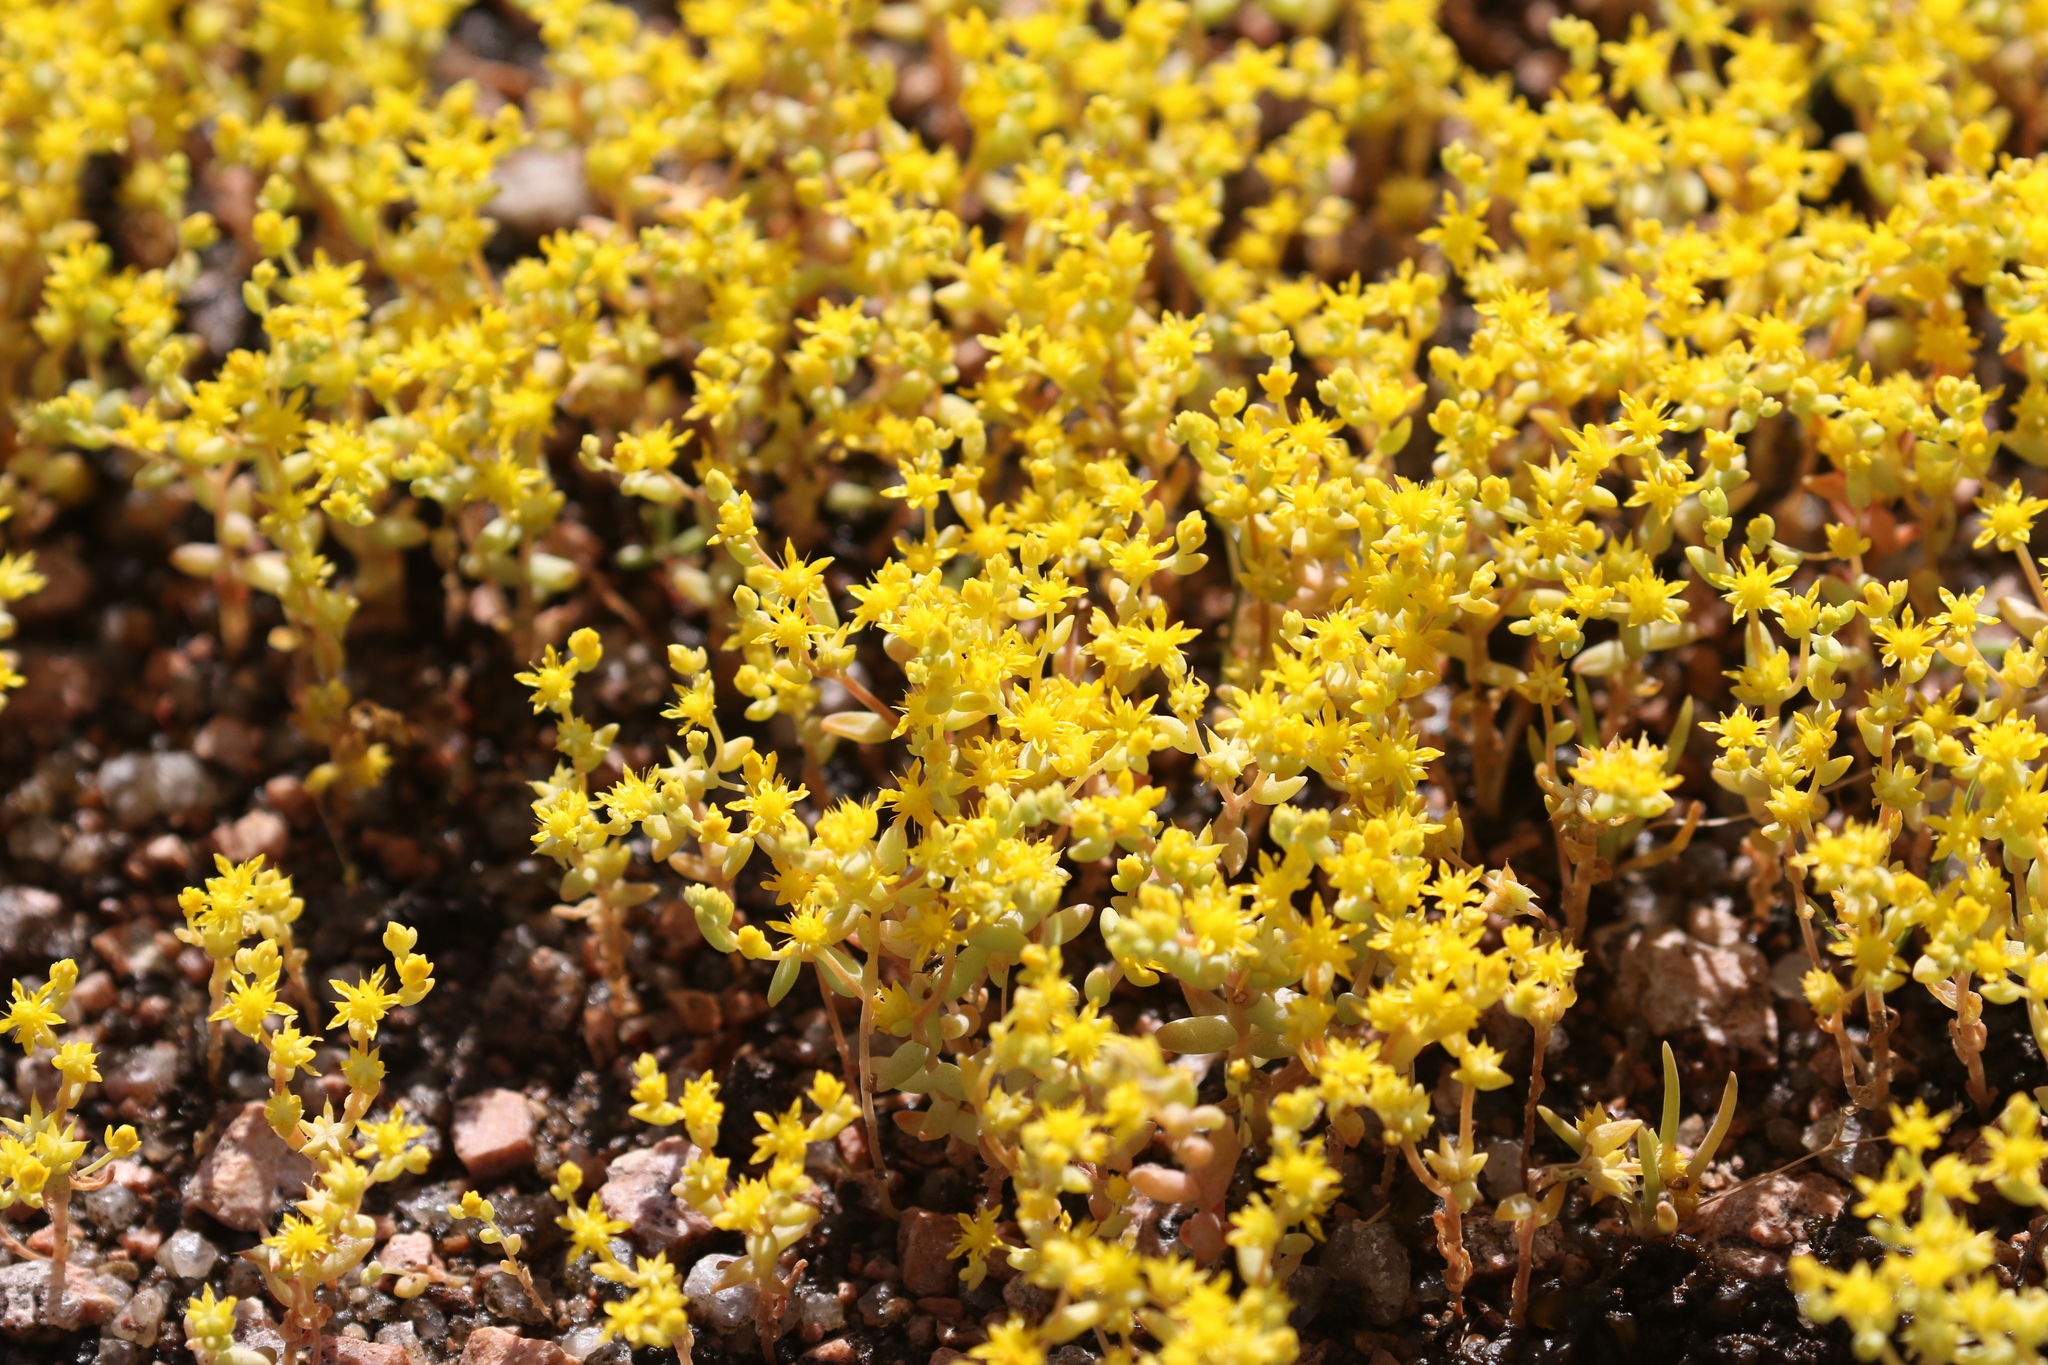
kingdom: Plantae
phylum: Tracheophyta
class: Magnoliopsida
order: Saxifragales
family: Crassulaceae
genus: Sedum
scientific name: Sedum nuttallii
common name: Yellow stonecrop
